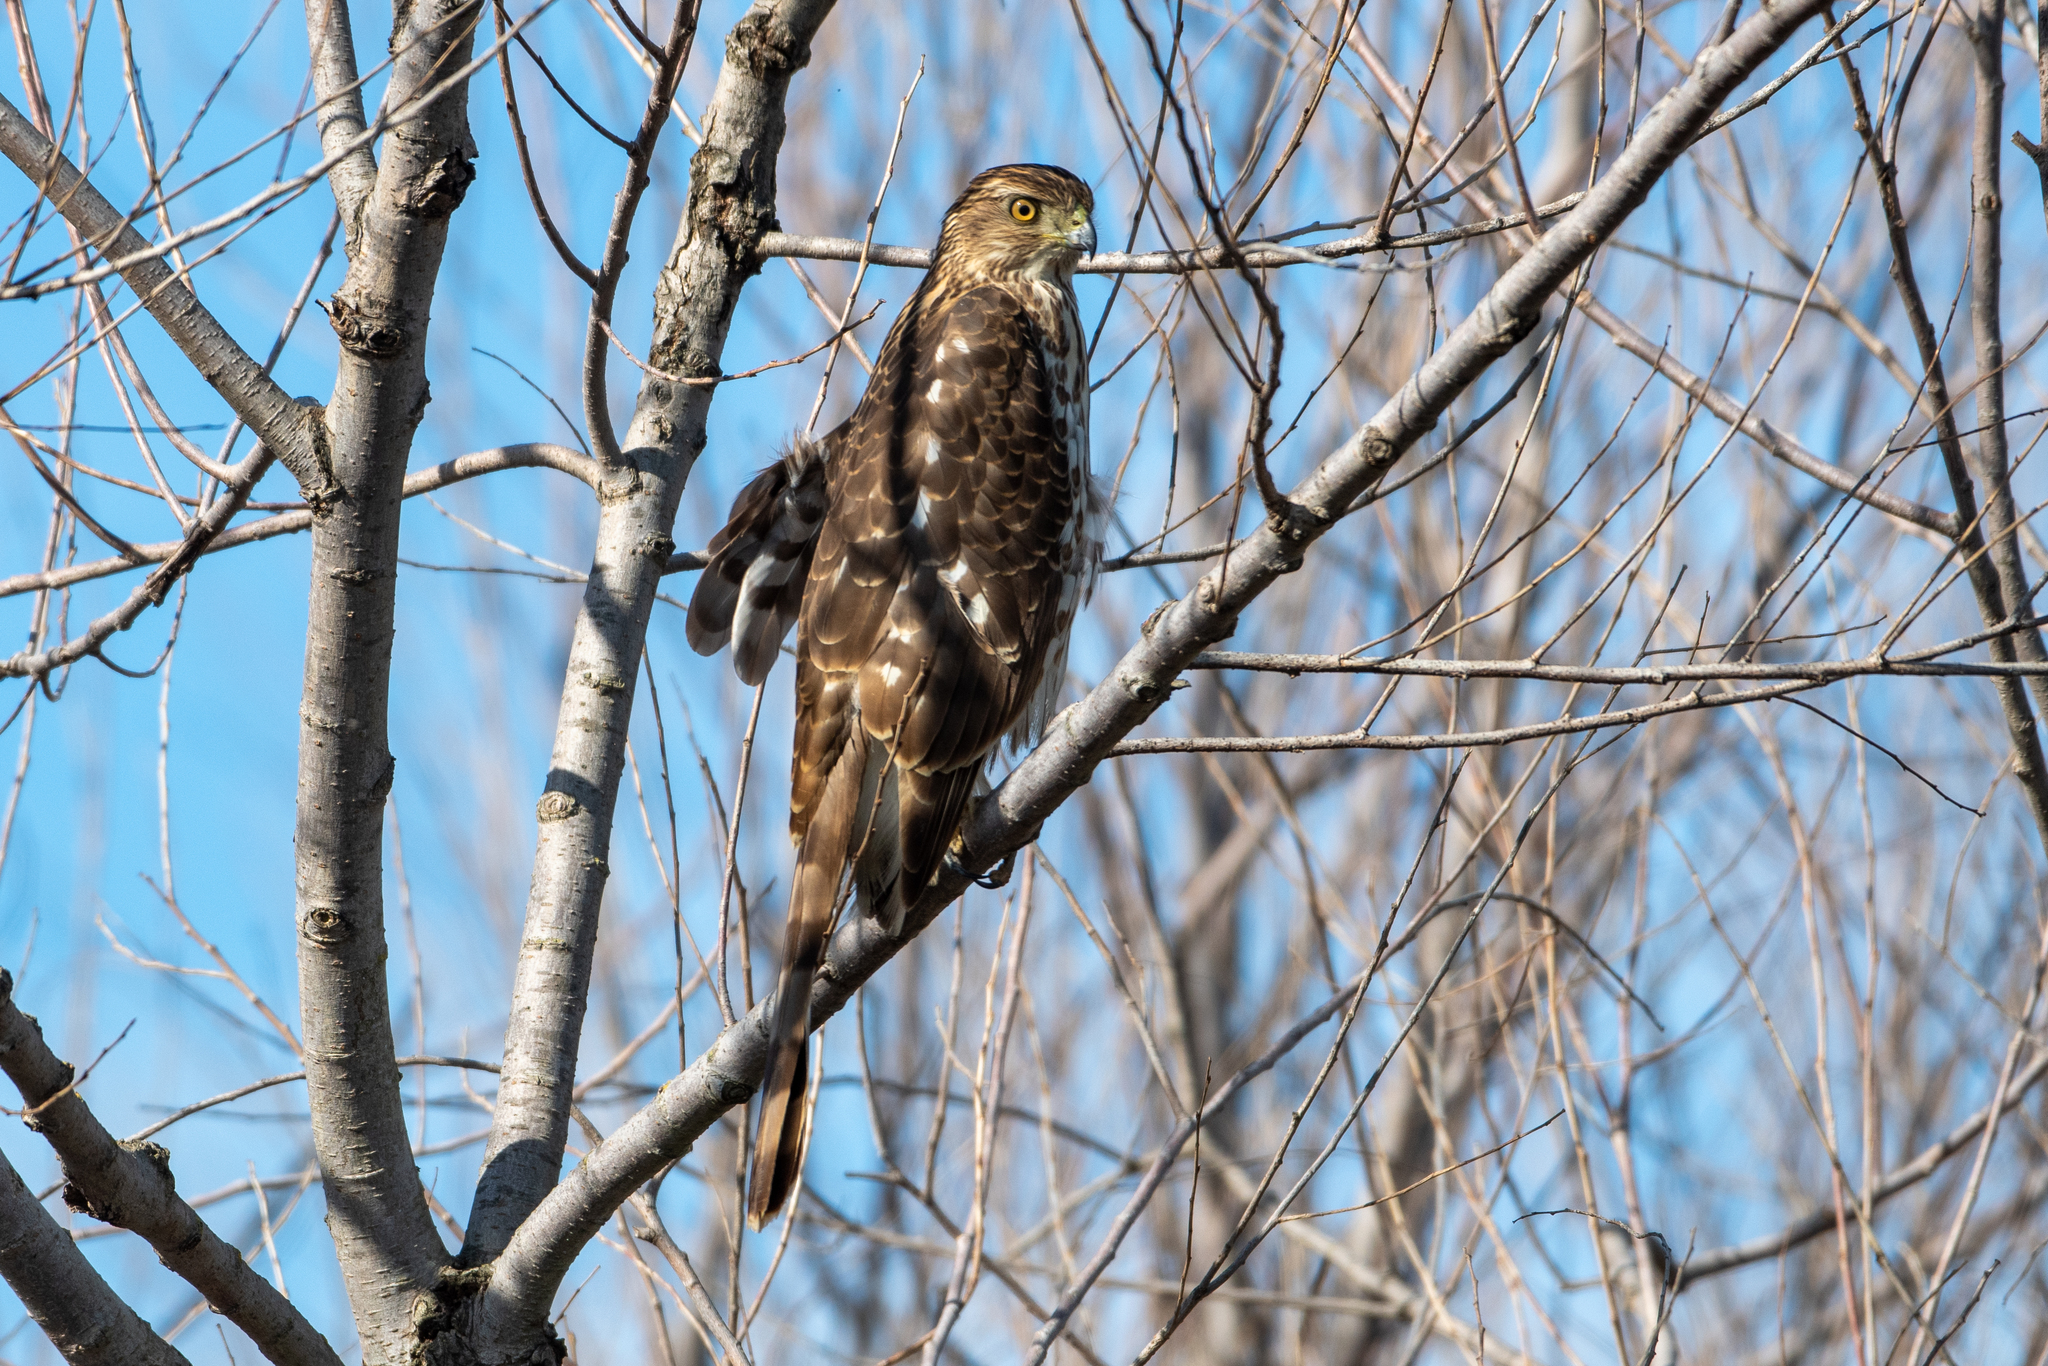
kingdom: Animalia
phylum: Chordata
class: Aves
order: Accipitriformes
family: Accipitridae
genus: Accipiter
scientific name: Accipiter cooperii
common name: Cooper's hawk
